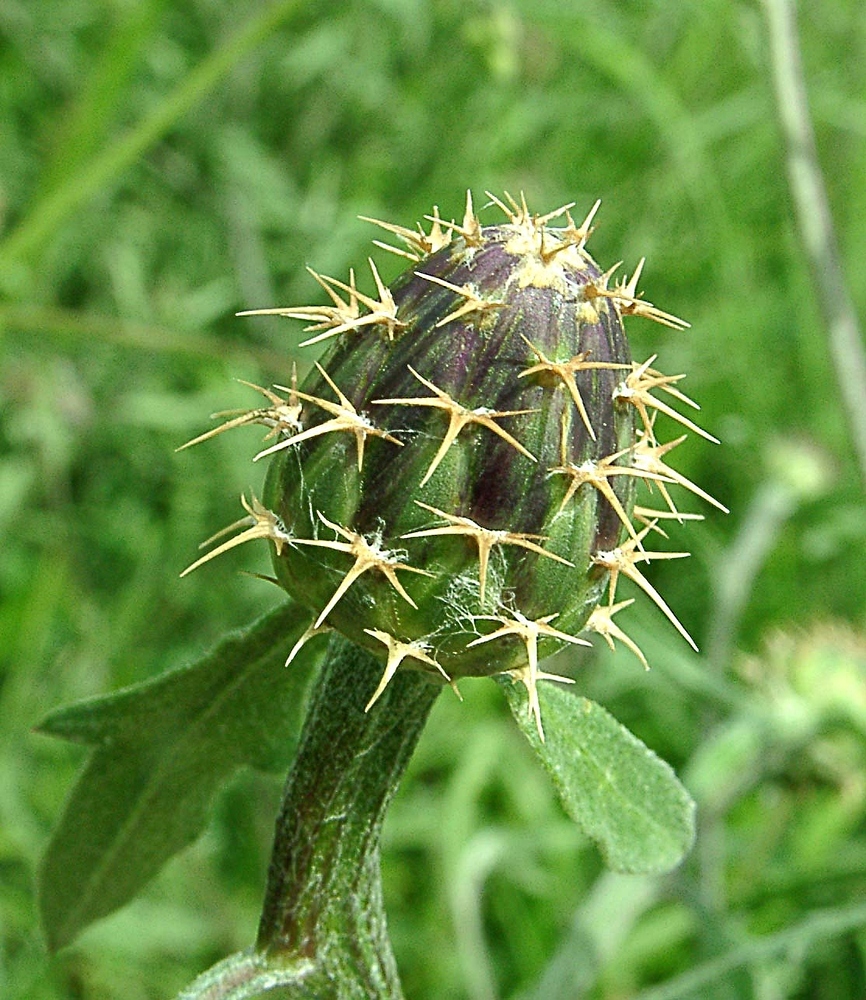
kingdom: Plantae
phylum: Tracheophyta
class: Magnoliopsida
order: Asterales
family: Asteraceae
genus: Centaurea
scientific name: Centaurea aspera
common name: Rough star-thistle
